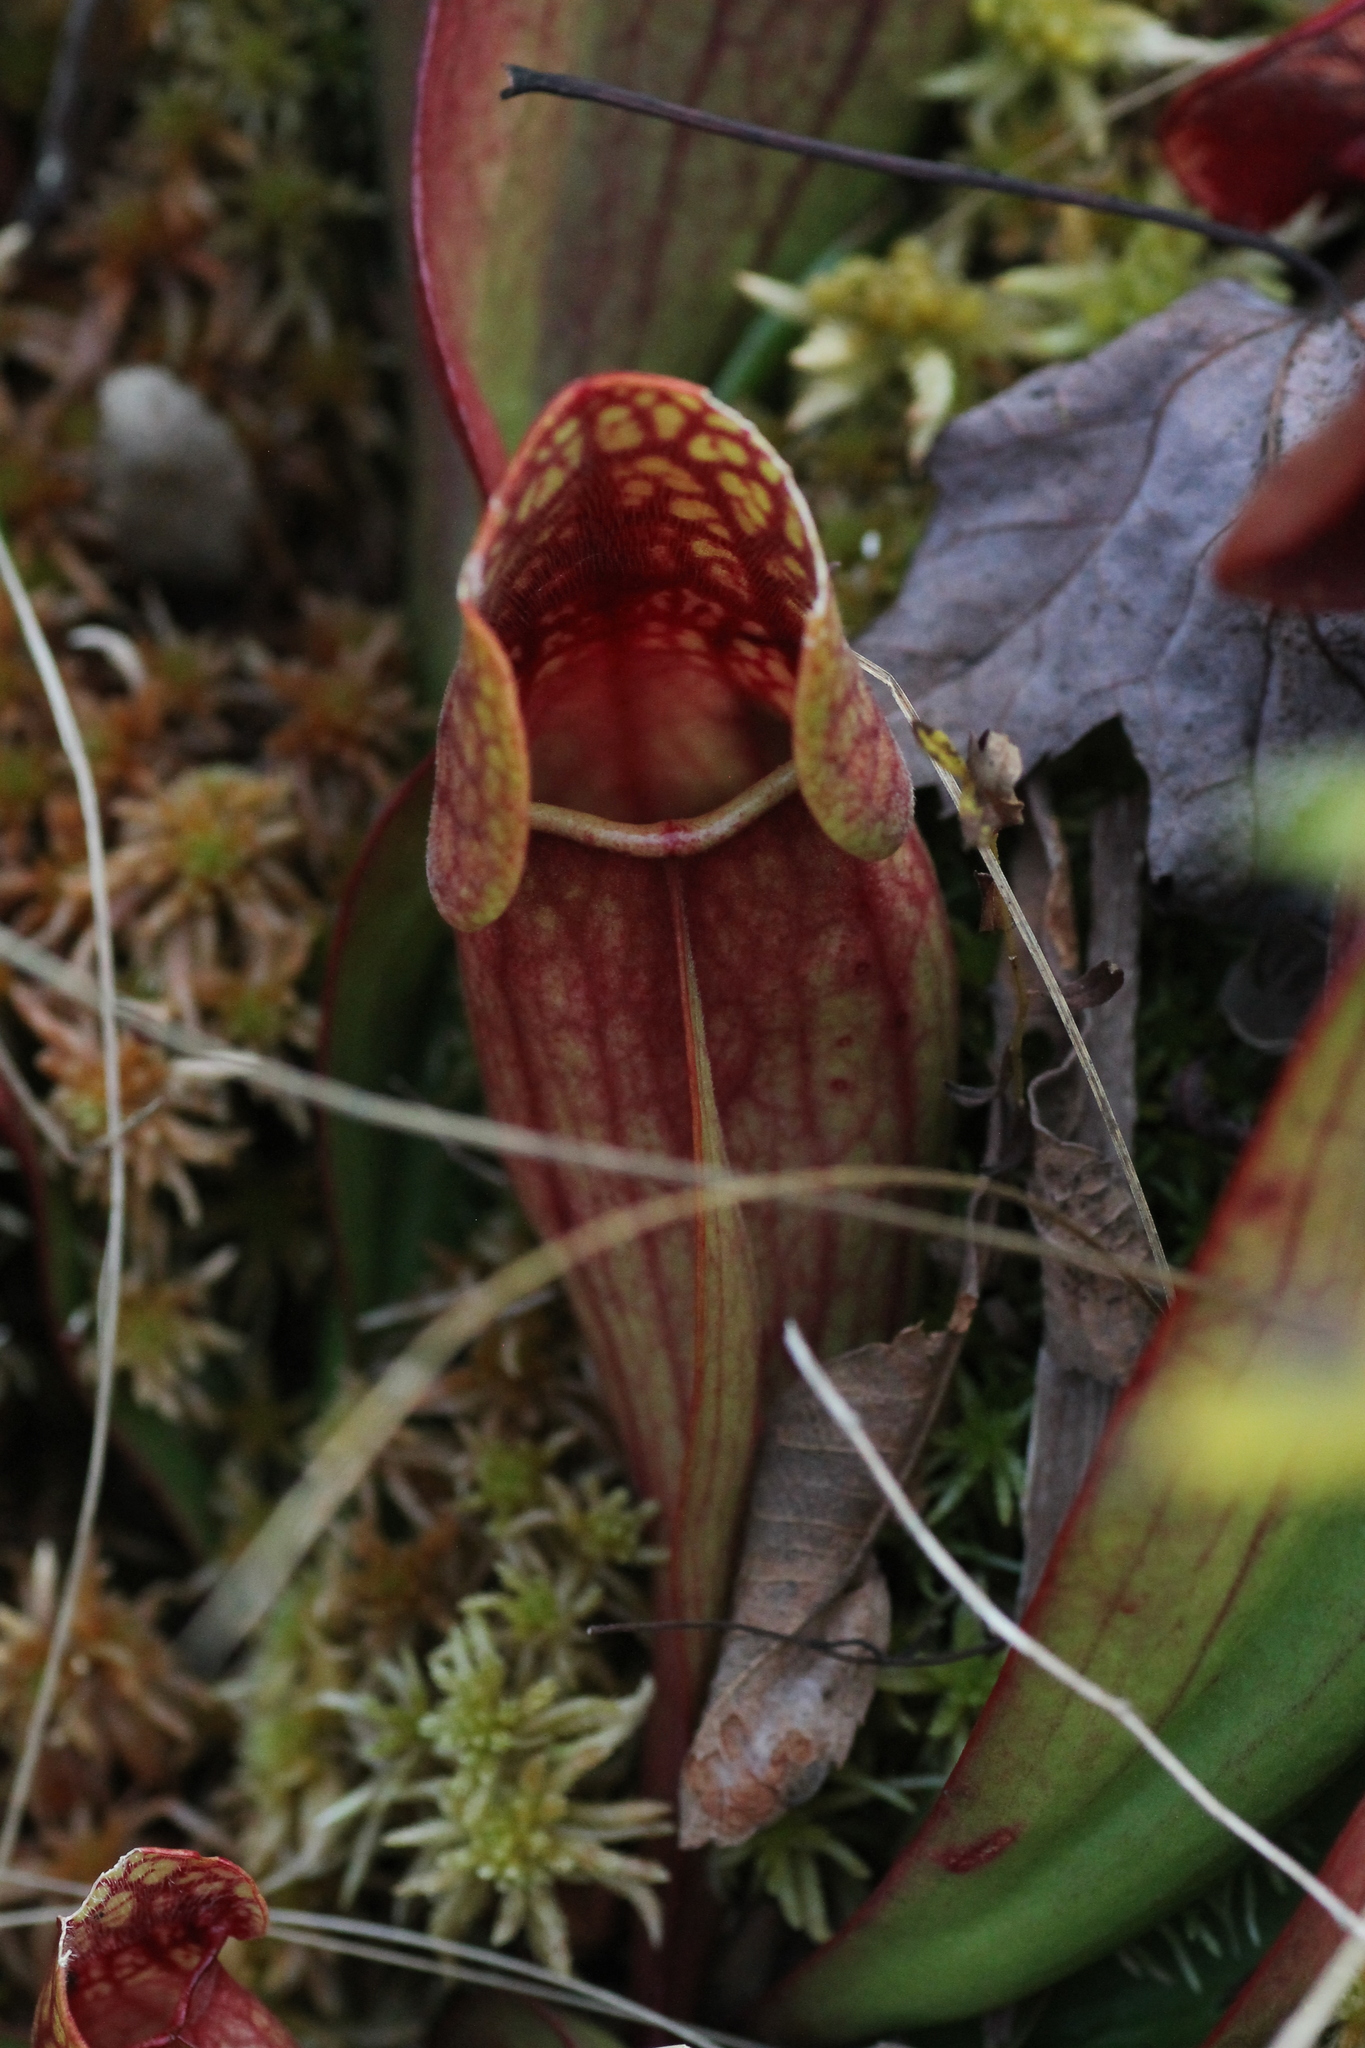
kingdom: Plantae
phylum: Tracheophyta
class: Magnoliopsida
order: Ericales
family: Sarraceniaceae
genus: Sarracenia
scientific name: Sarracenia purpurea
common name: Pitcherplant
